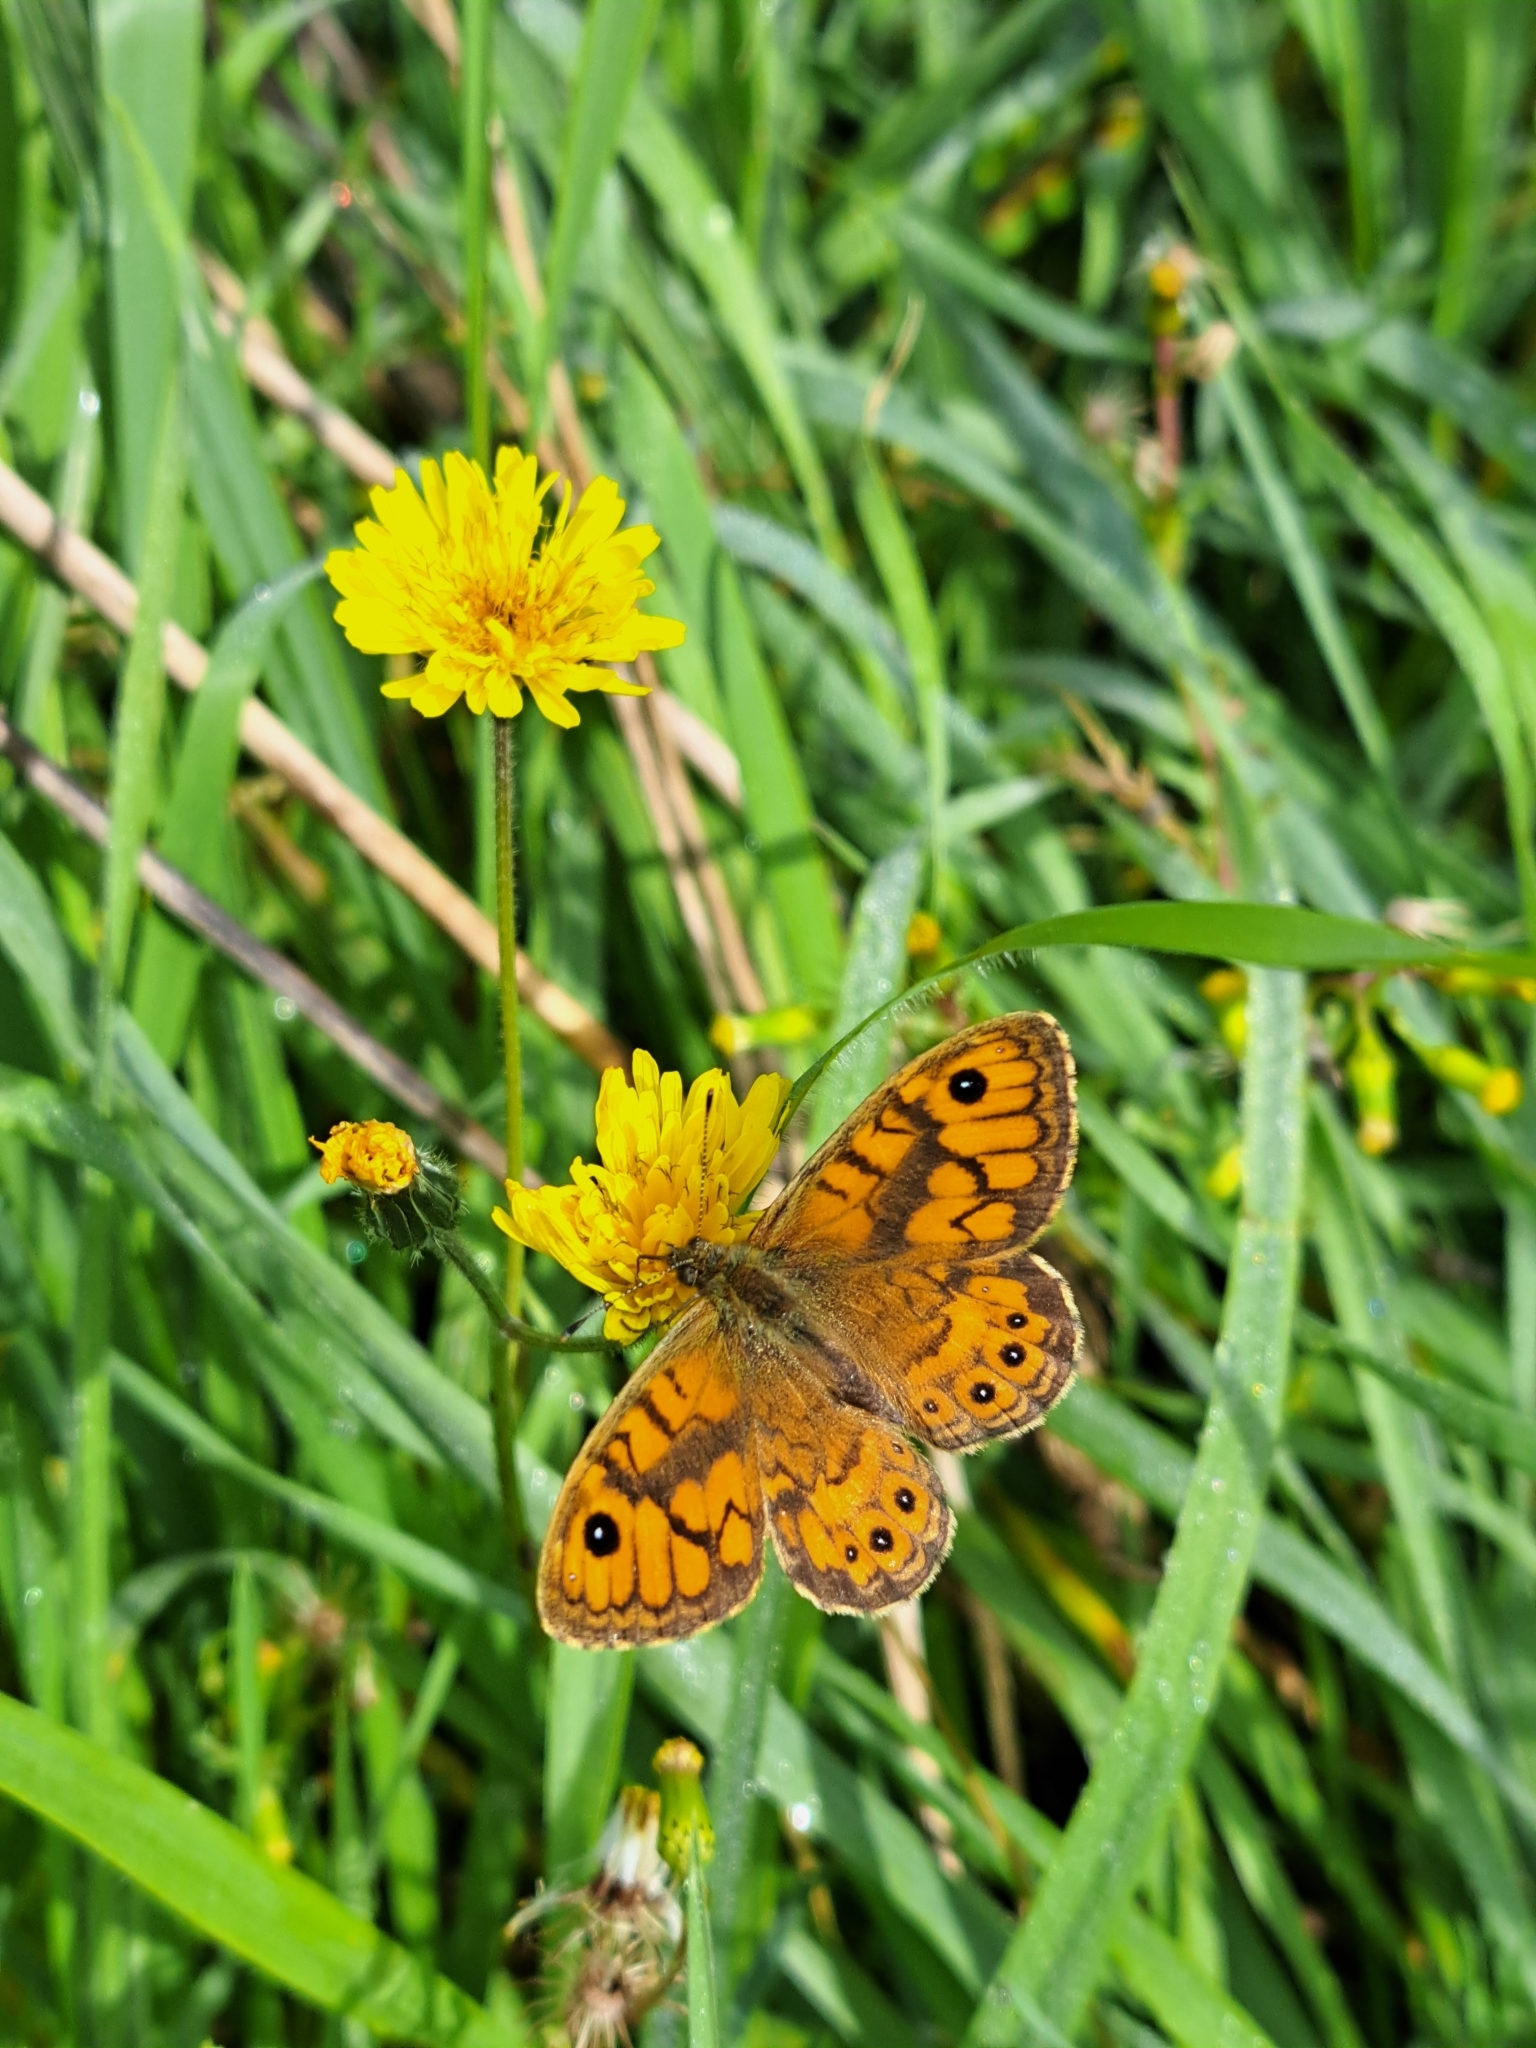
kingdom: Animalia
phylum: Arthropoda
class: Insecta
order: Lepidoptera
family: Nymphalidae
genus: Pararge
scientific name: Pararge Lasiommata megera
